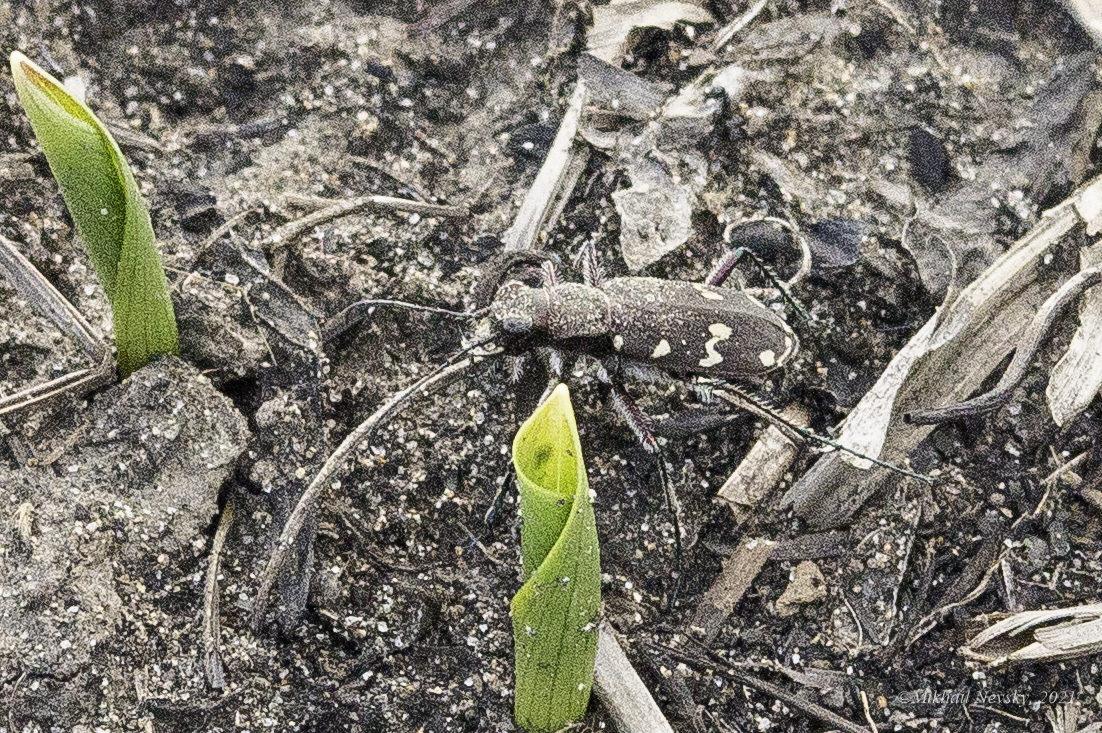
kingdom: Animalia
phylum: Arthropoda
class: Insecta
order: Coleoptera
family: Carabidae
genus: Cicindela
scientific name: Cicindela gemmata
